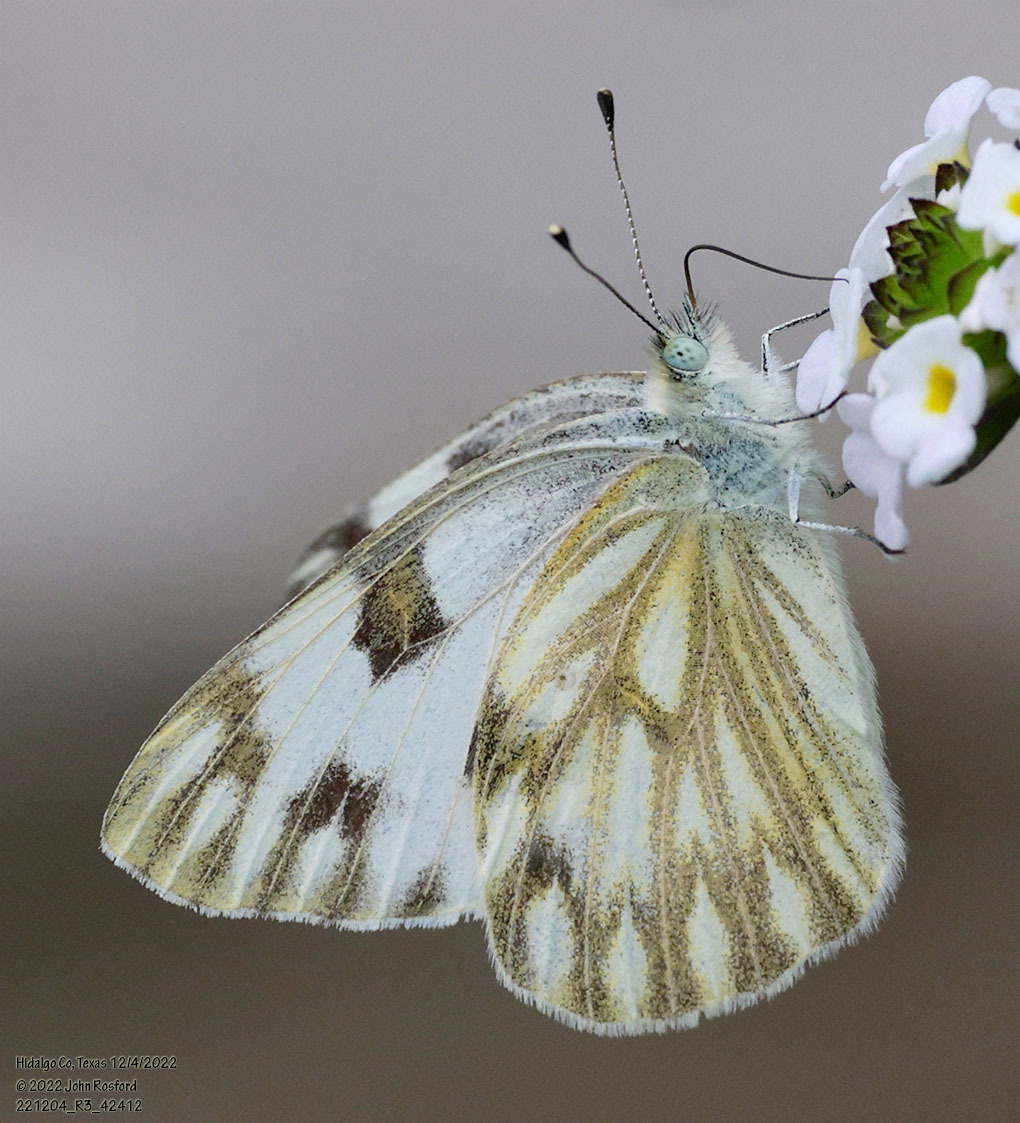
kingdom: Animalia
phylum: Arthropoda
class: Insecta
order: Lepidoptera
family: Pieridae
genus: Pontia
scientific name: Pontia protodice
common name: Checkered white
